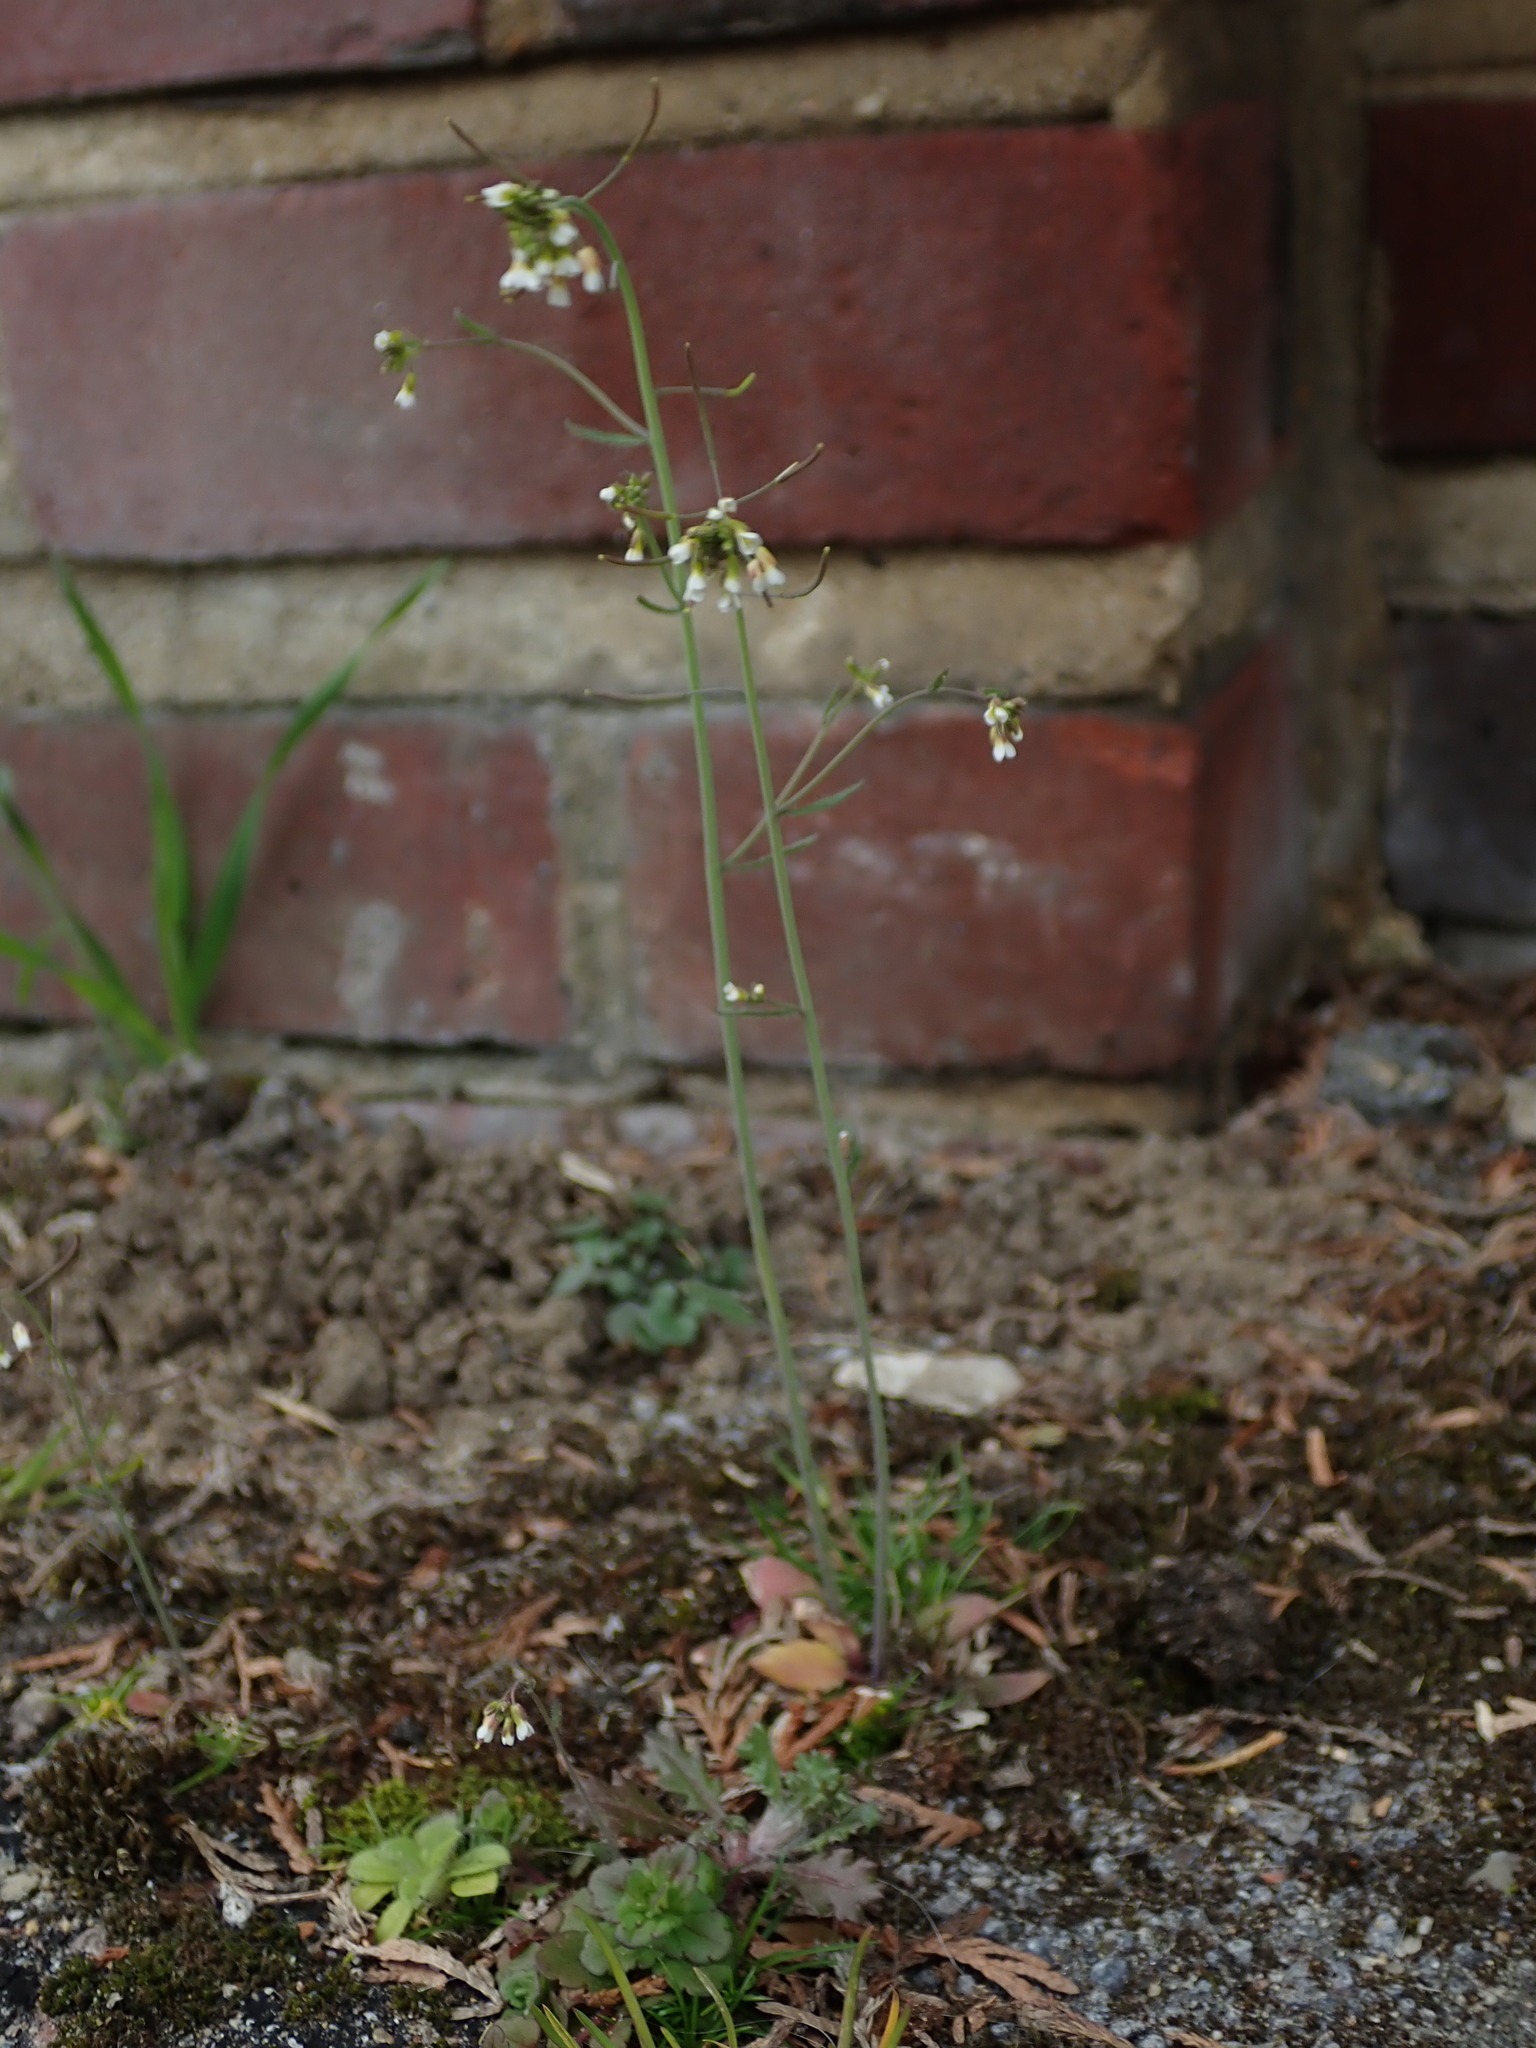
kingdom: Plantae
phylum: Tracheophyta
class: Magnoliopsida
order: Brassicales
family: Brassicaceae
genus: Arabidopsis
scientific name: Arabidopsis thaliana
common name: Thale cress
